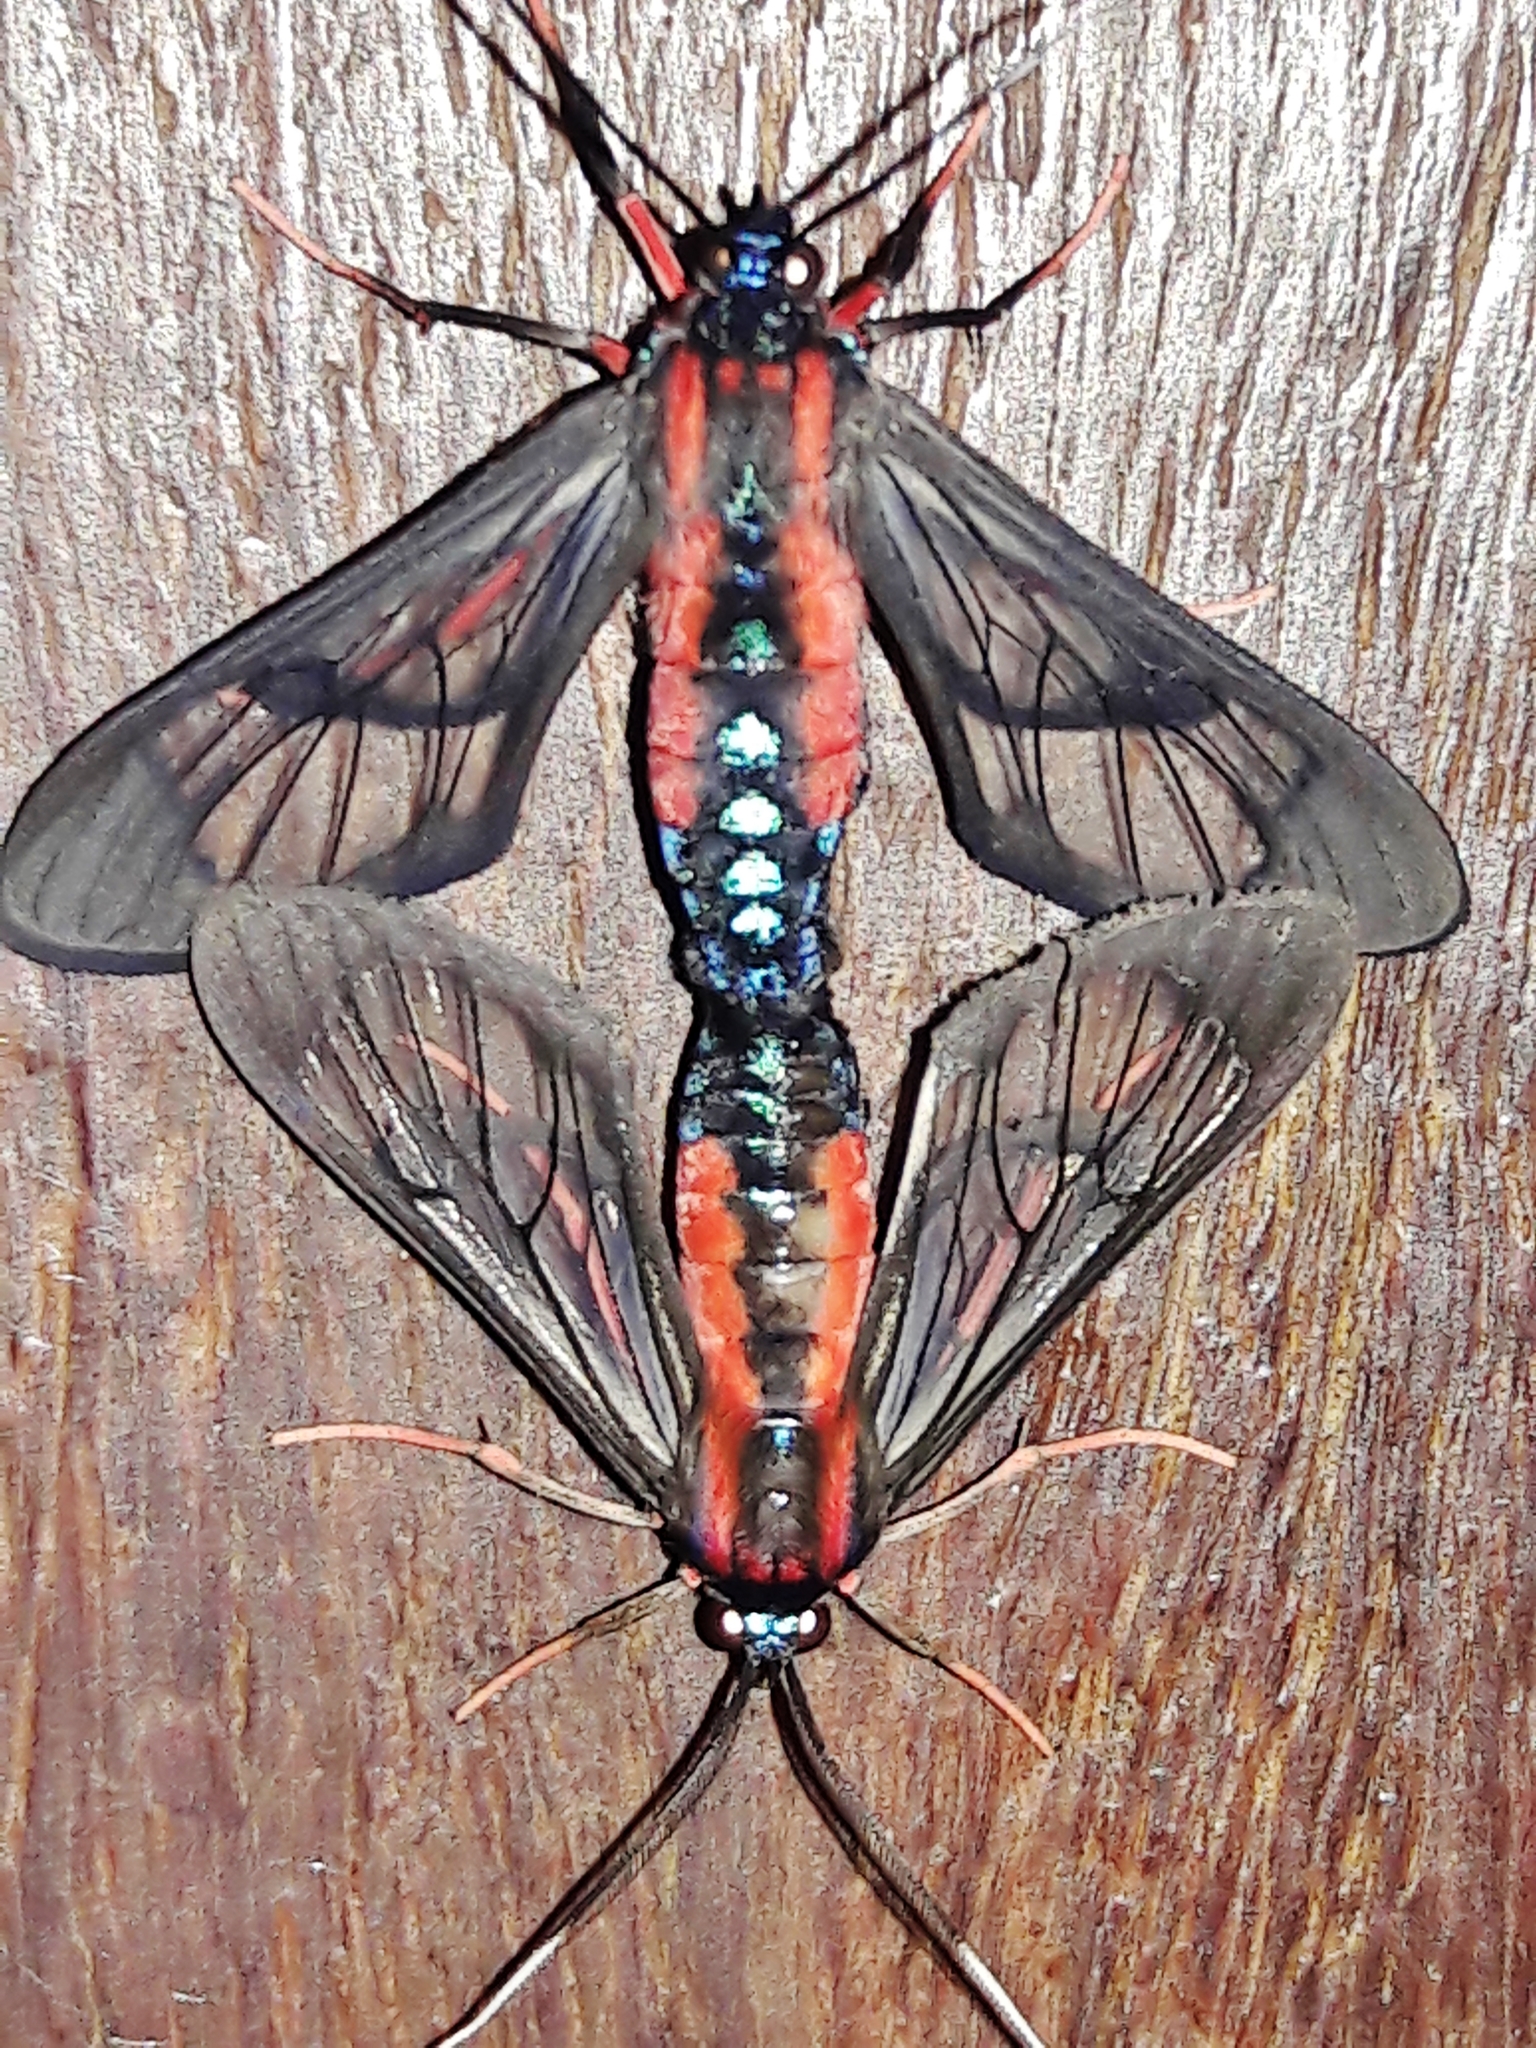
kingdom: Animalia
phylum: Arthropoda
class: Insecta
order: Lepidoptera
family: Erebidae
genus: Cosmosoma
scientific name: Cosmosoma auge
